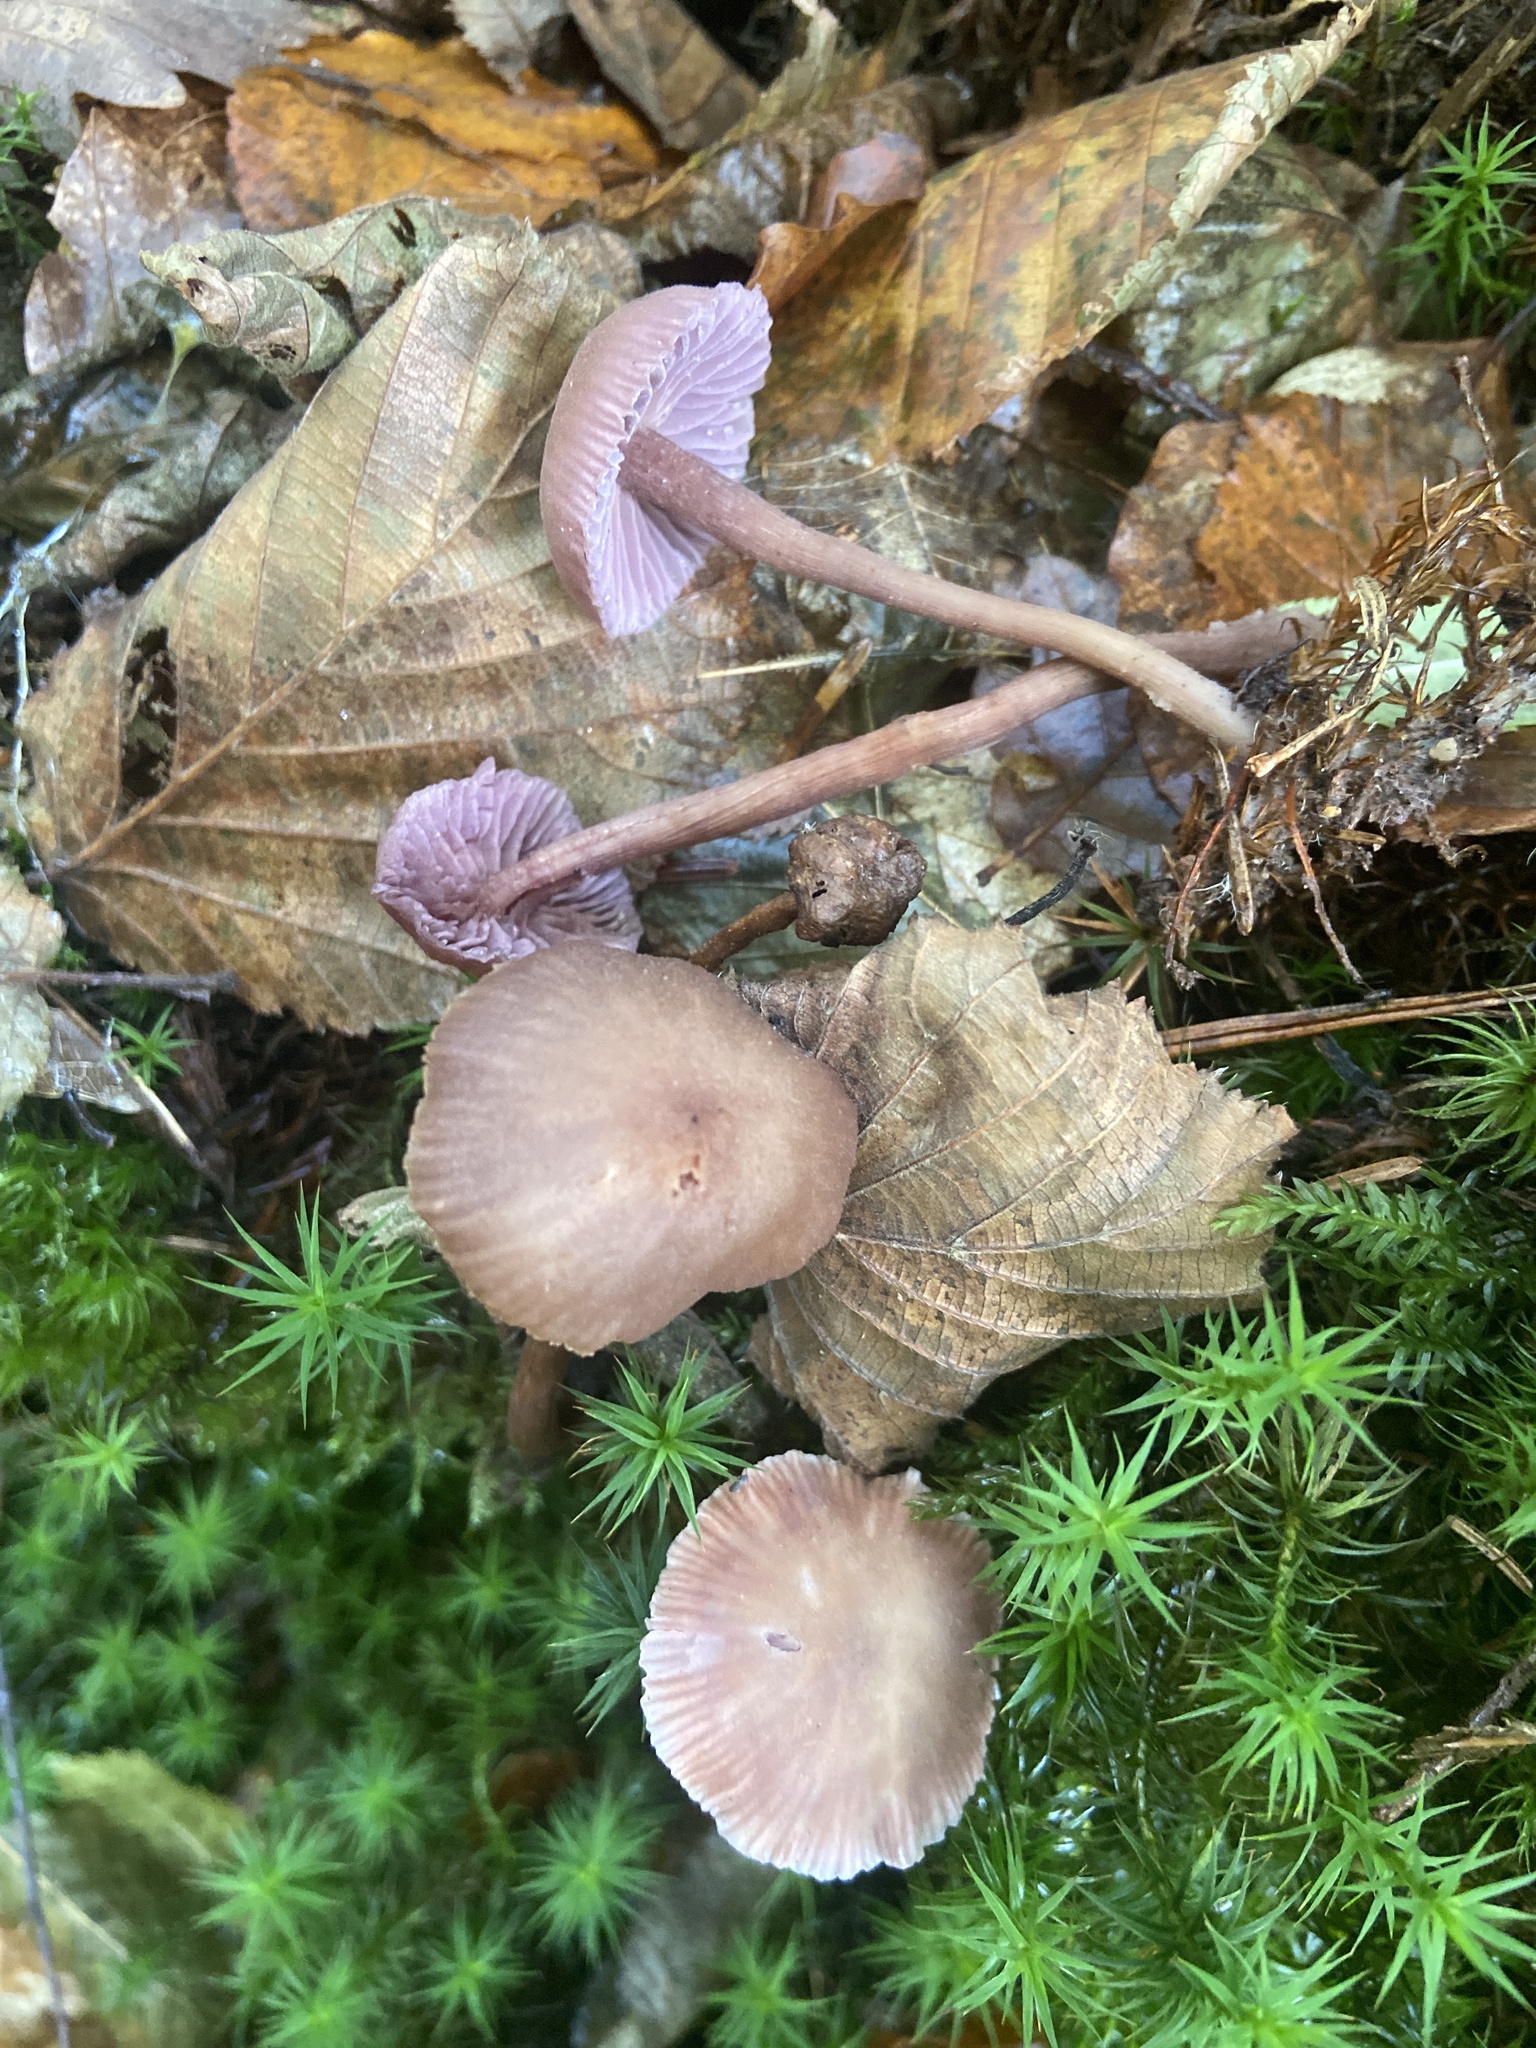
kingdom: Fungi
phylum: Basidiomycota
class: Agaricomycetes
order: Agaricales
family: Hydnangiaceae
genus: Laccaria
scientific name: Laccaria amethystina
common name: Amethyst deceiver
